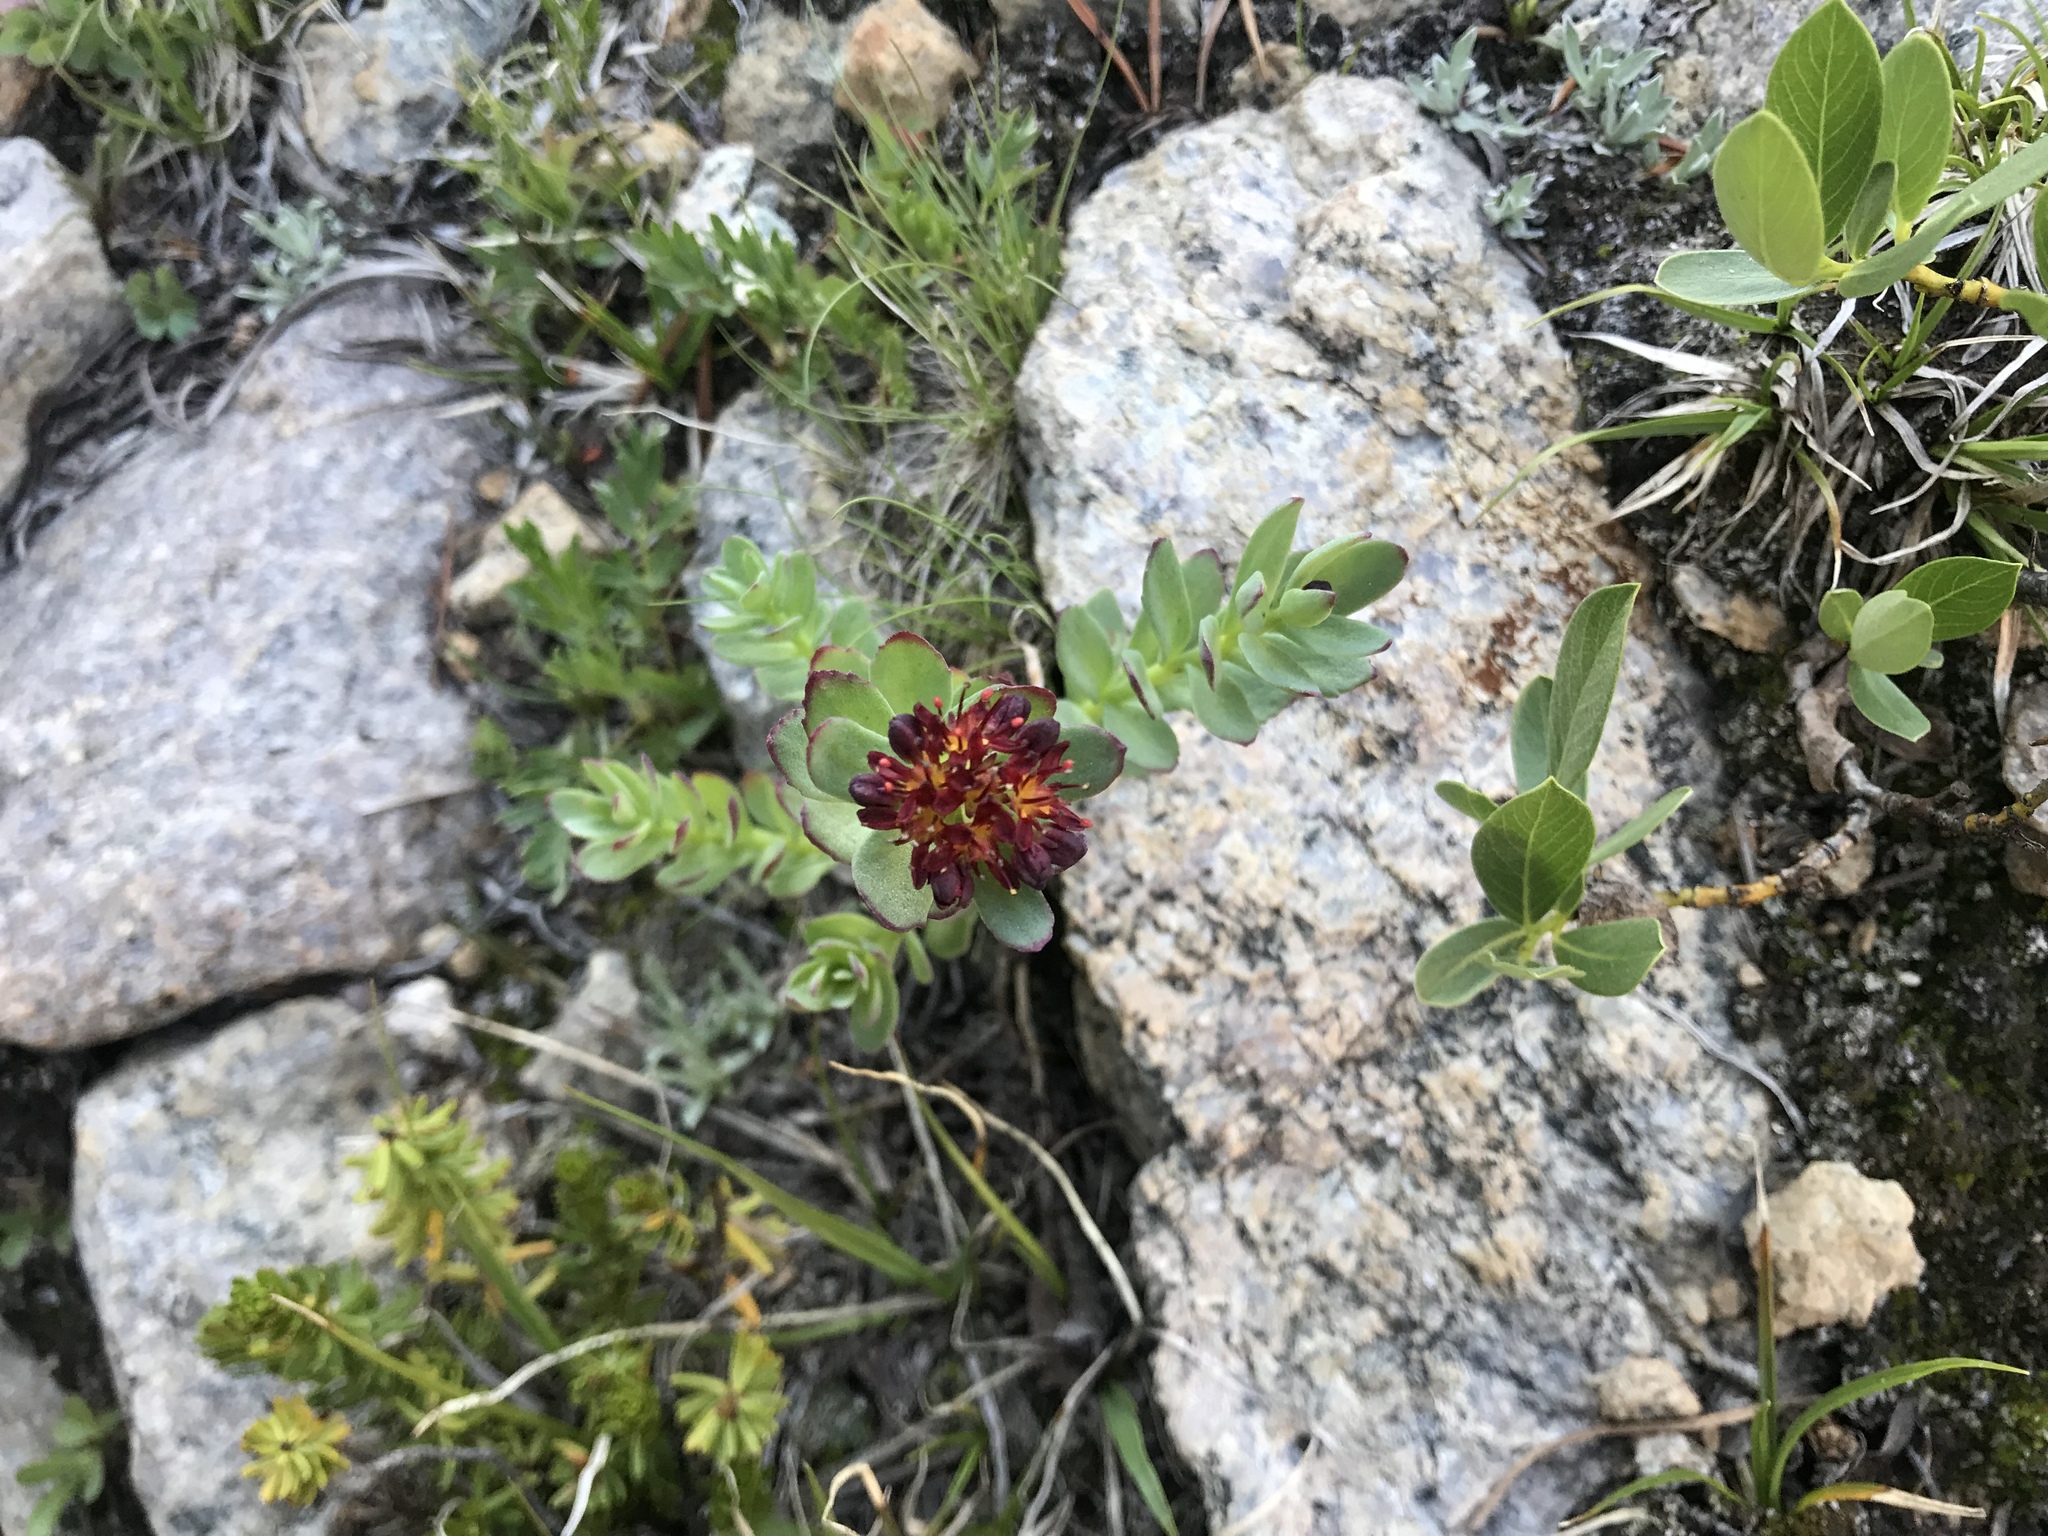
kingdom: Plantae
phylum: Tracheophyta
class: Magnoliopsida
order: Saxifragales
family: Crassulaceae
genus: Rhodiola
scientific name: Rhodiola integrifolia
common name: Western roseroot
